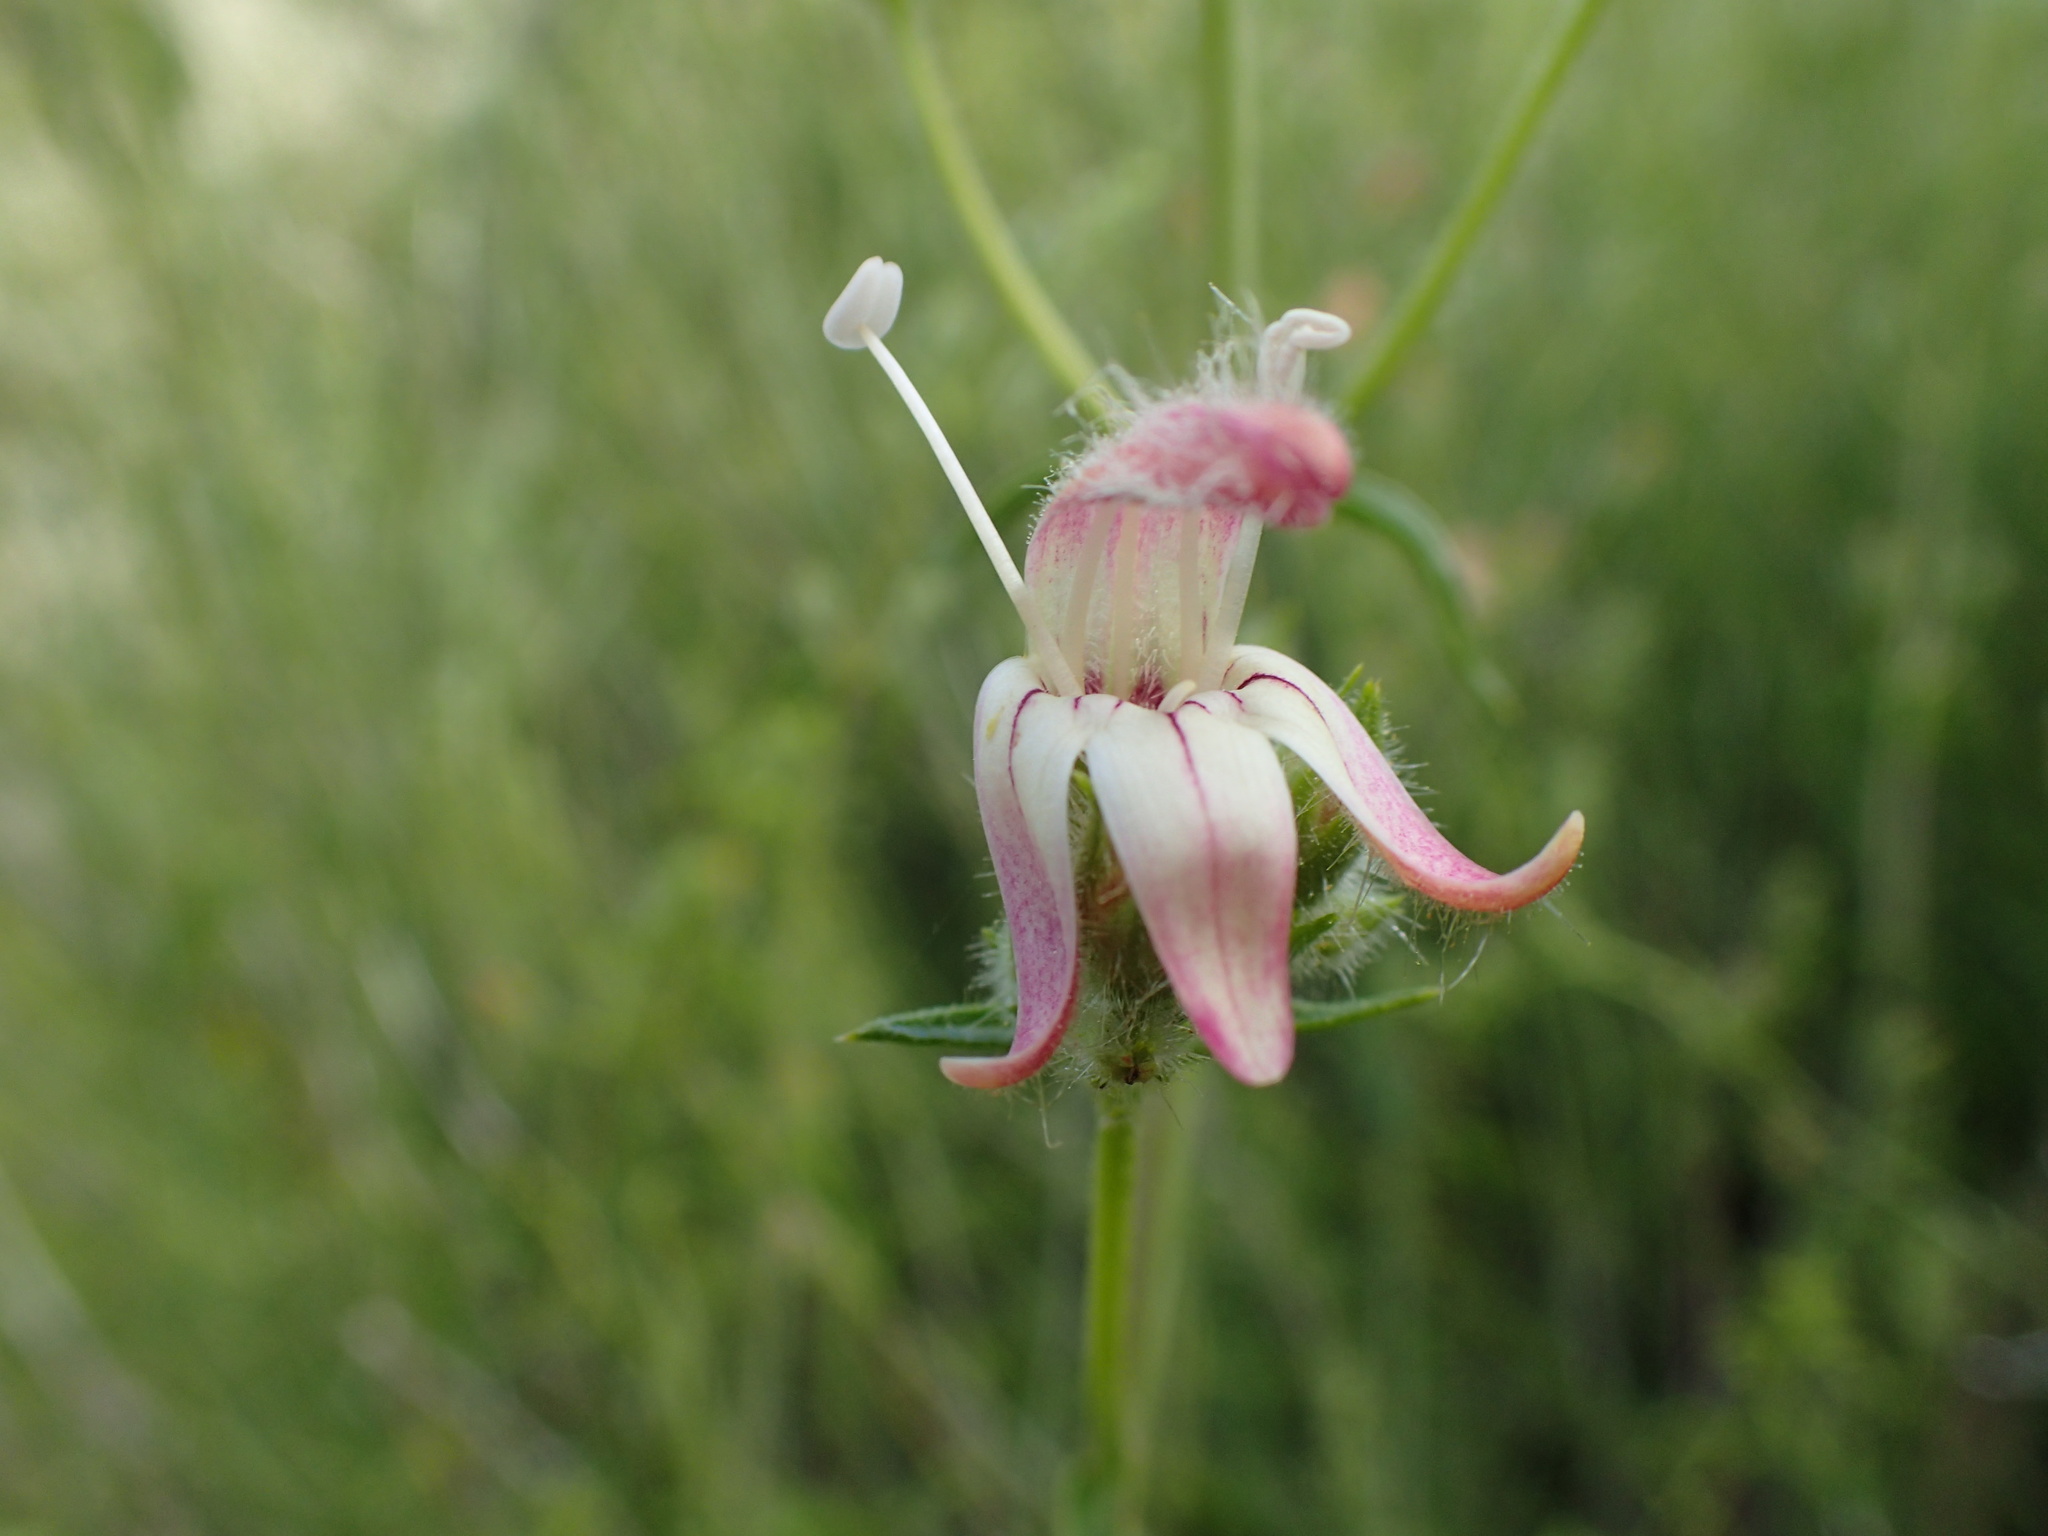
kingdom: Plantae
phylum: Tracheophyta
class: Magnoliopsida
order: Lamiales
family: Plantaginaceae
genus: Keckiella
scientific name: Keckiella breviflora
